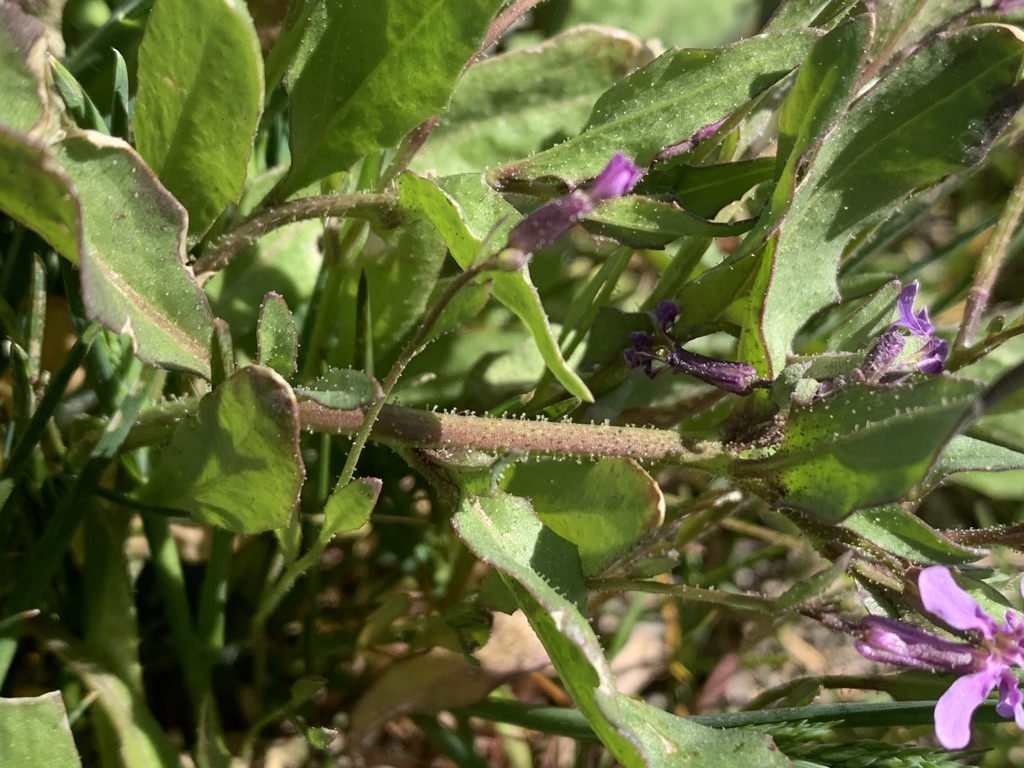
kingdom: Plantae
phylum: Tracheophyta
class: Magnoliopsida
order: Brassicales
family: Brassicaceae
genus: Chorispora
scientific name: Chorispora tenella
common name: Crossflower
